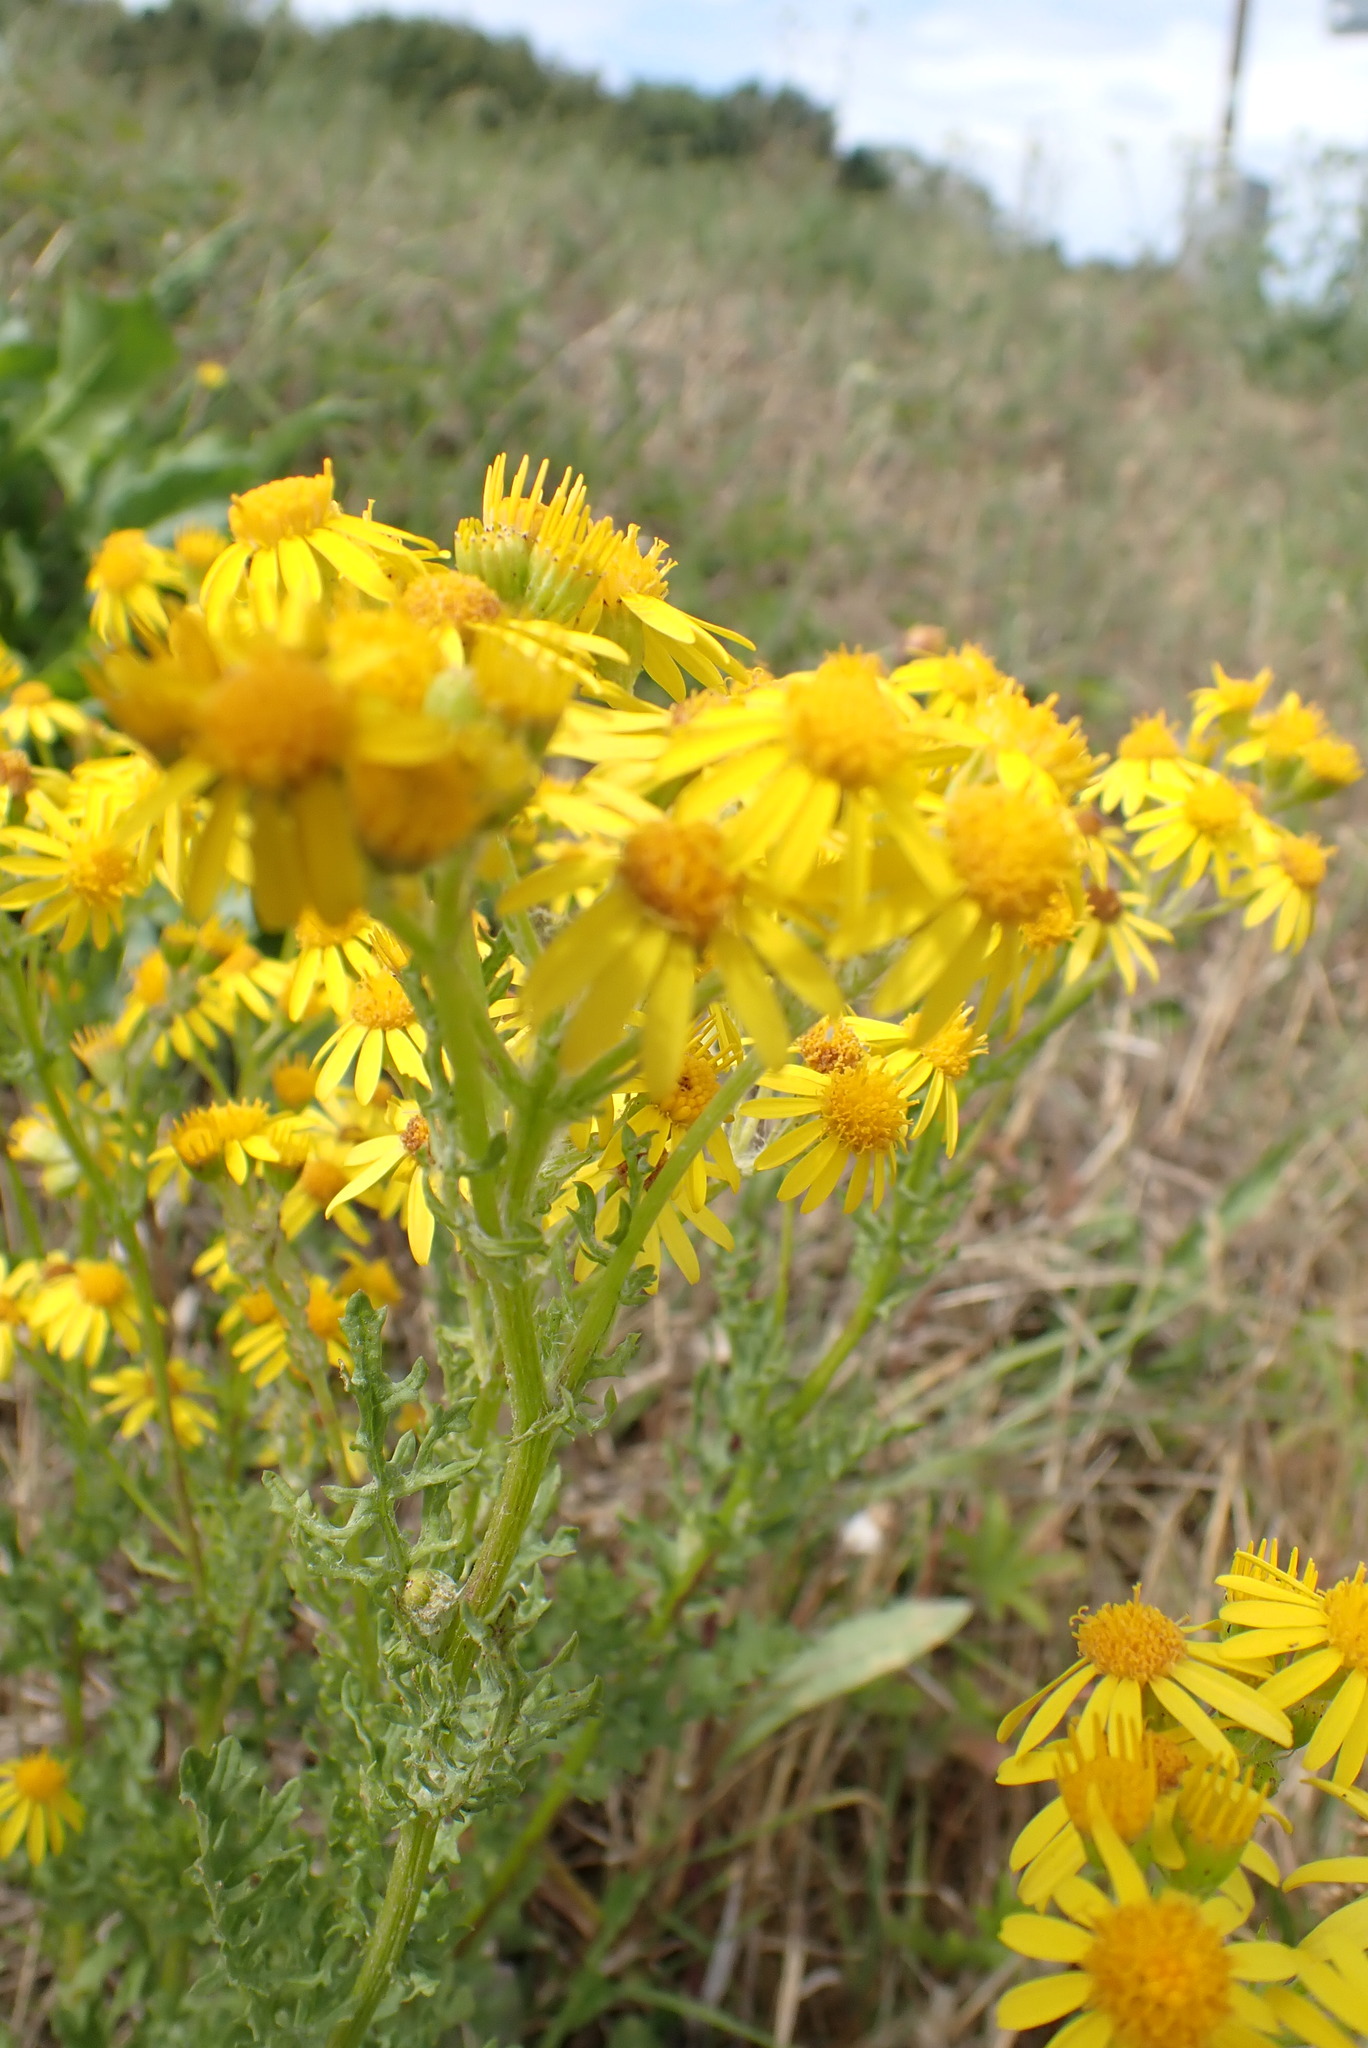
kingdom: Plantae
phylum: Tracheophyta
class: Magnoliopsida
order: Asterales
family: Asteraceae
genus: Jacobaea
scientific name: Jacobaea vulgaris
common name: Stinking willie
